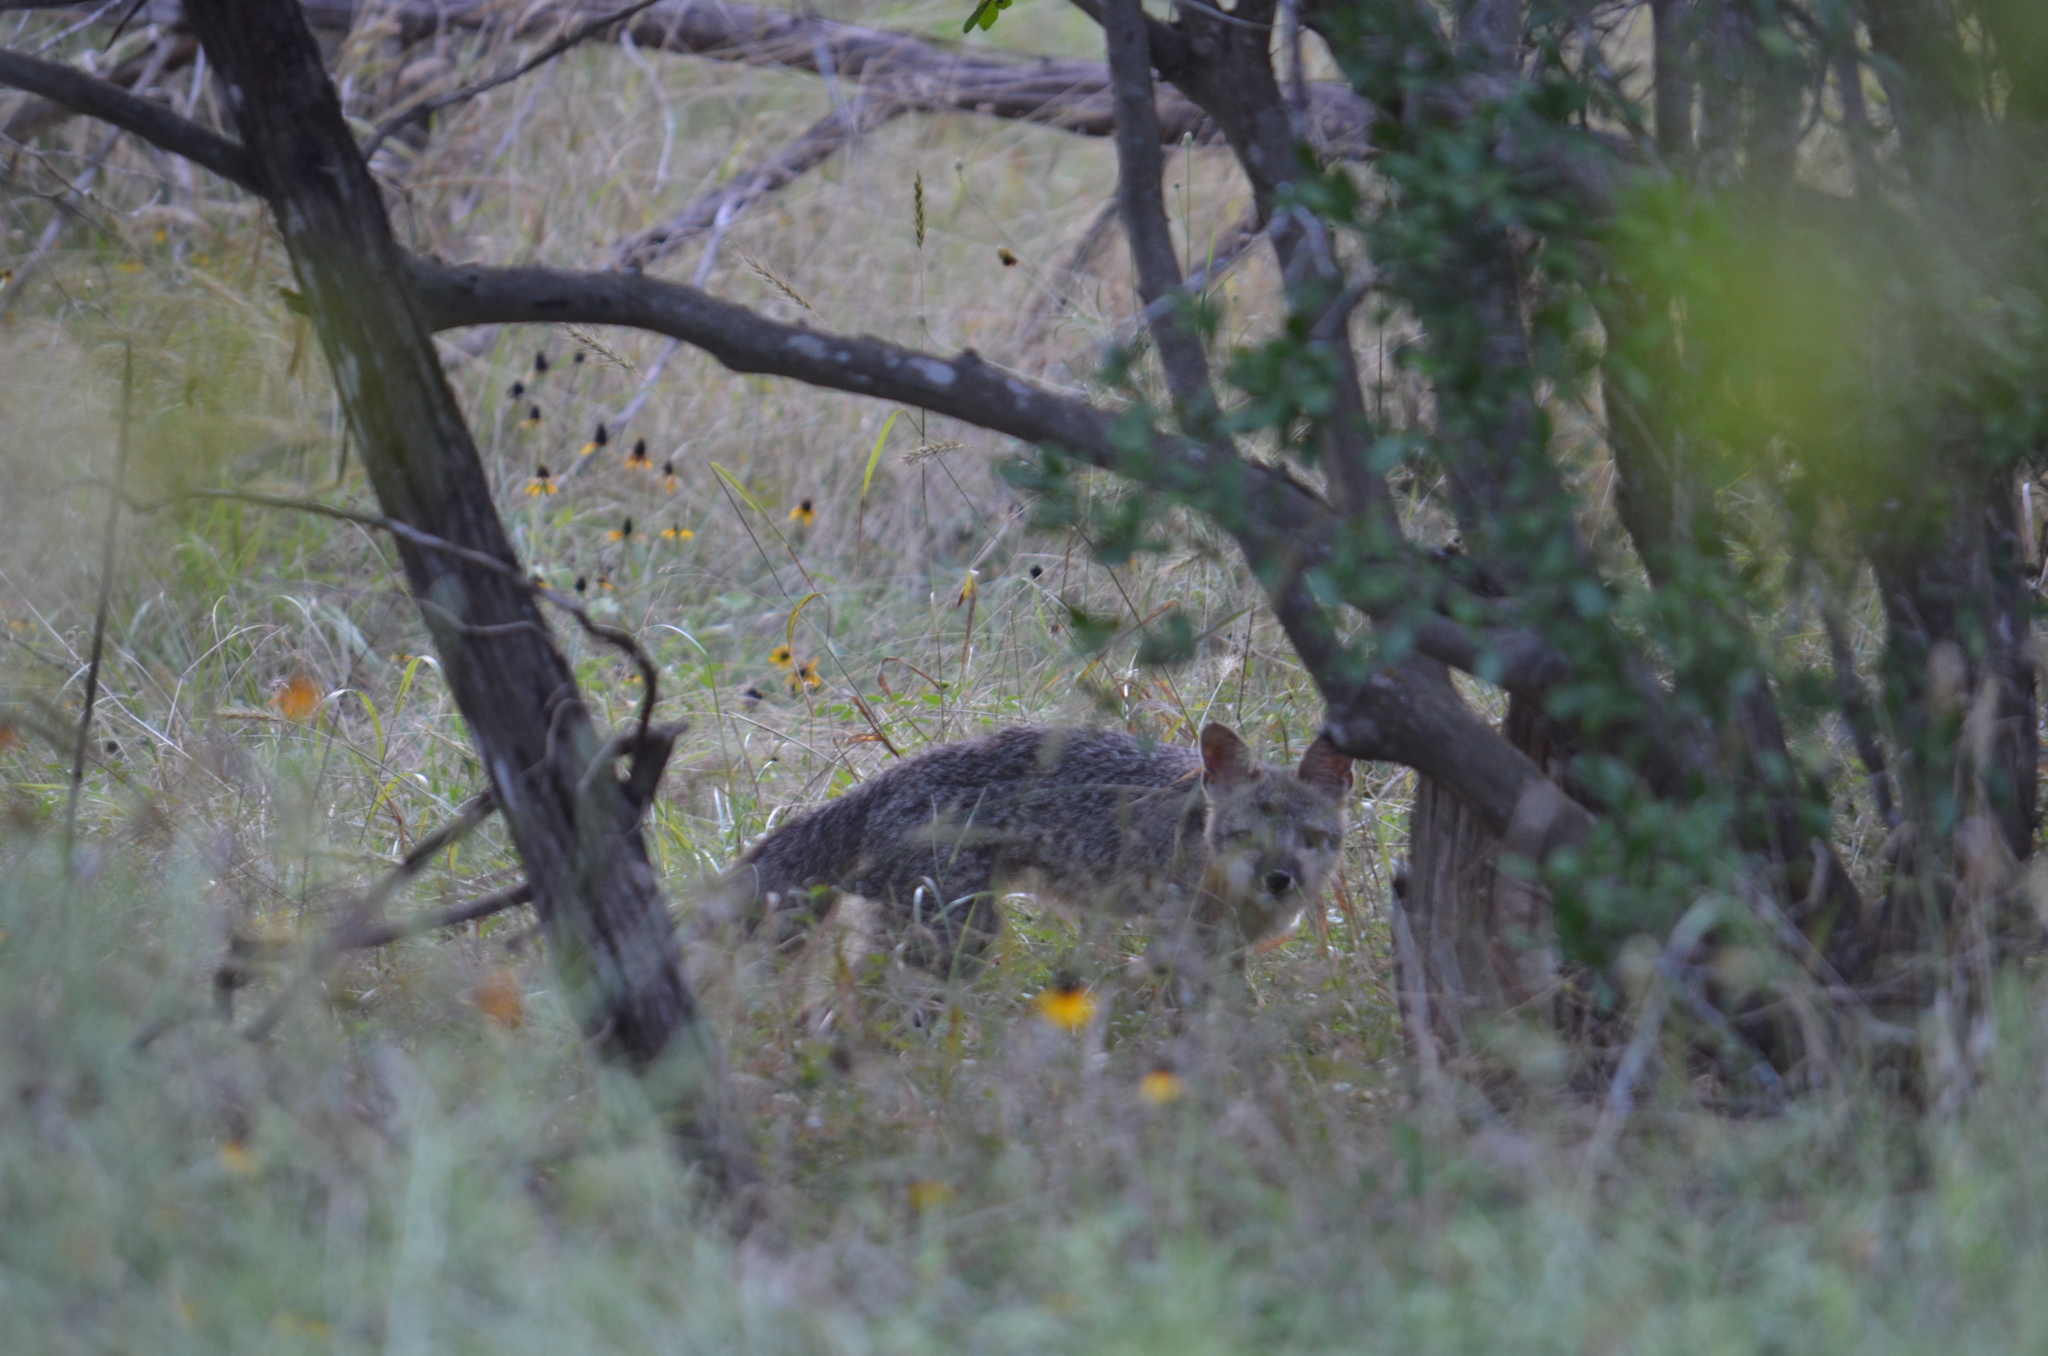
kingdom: Animalia
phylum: Chordata
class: Mammalia
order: Carnivora
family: Canidae
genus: Urocyon
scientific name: Urocyon cinereoargenteus
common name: Gray fox
